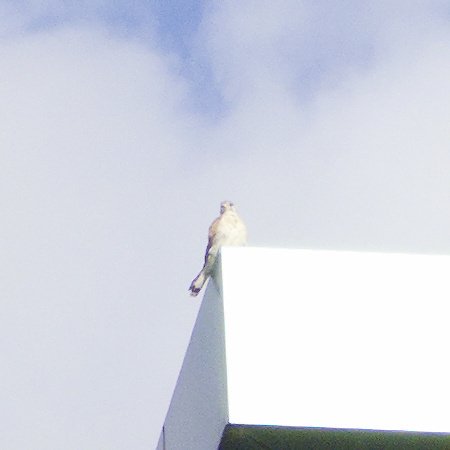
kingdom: Animalia
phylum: Chordata
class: Aves
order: Falconiformes
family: Falconidae
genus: Falco
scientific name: Falco cenchroides
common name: Nankeen kestrel
